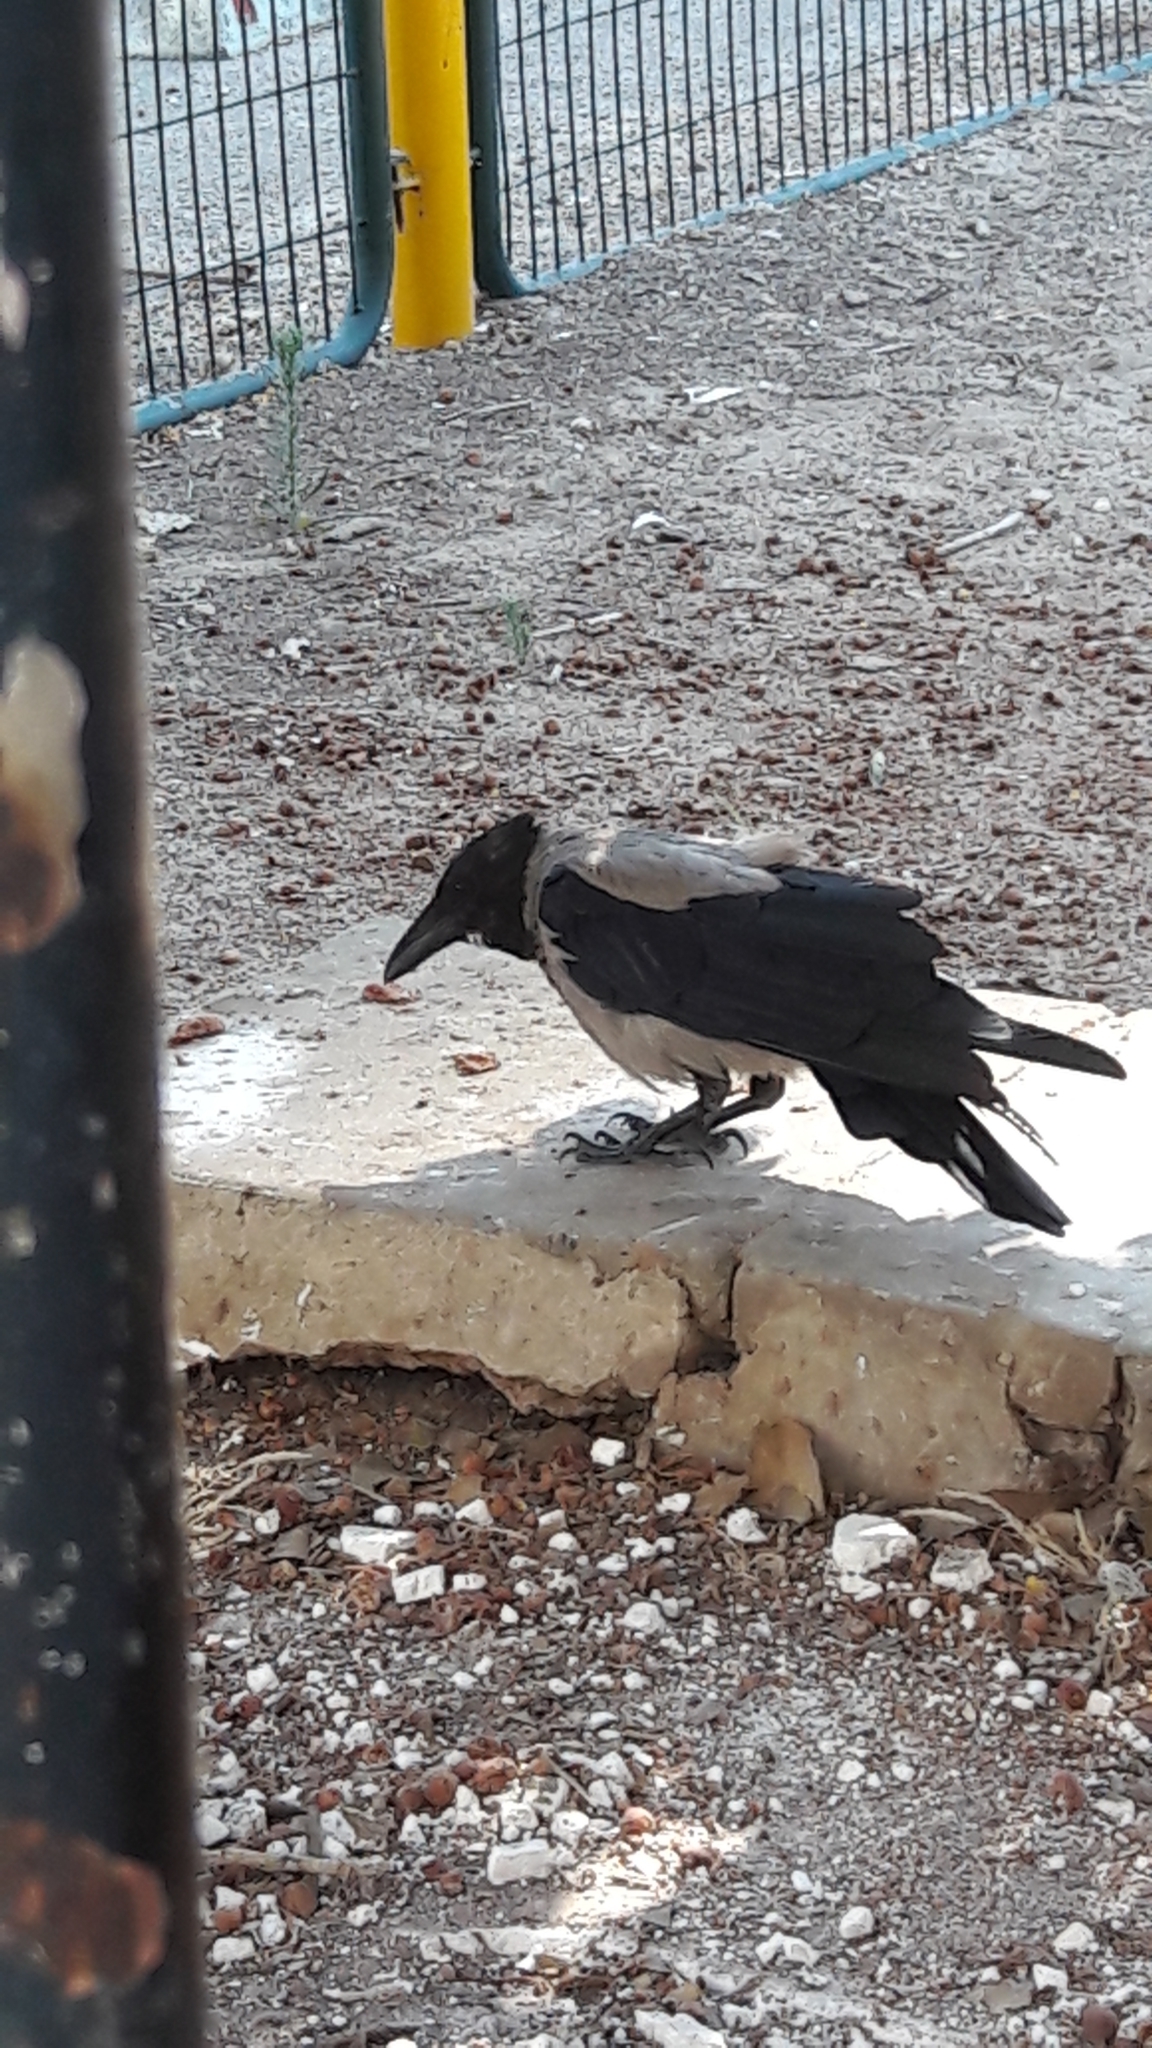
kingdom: Animalia
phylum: Chordata
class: Aves
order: Passeriformes
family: Corvidae
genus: Corvus
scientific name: Corvus cornix
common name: Hooded crow
